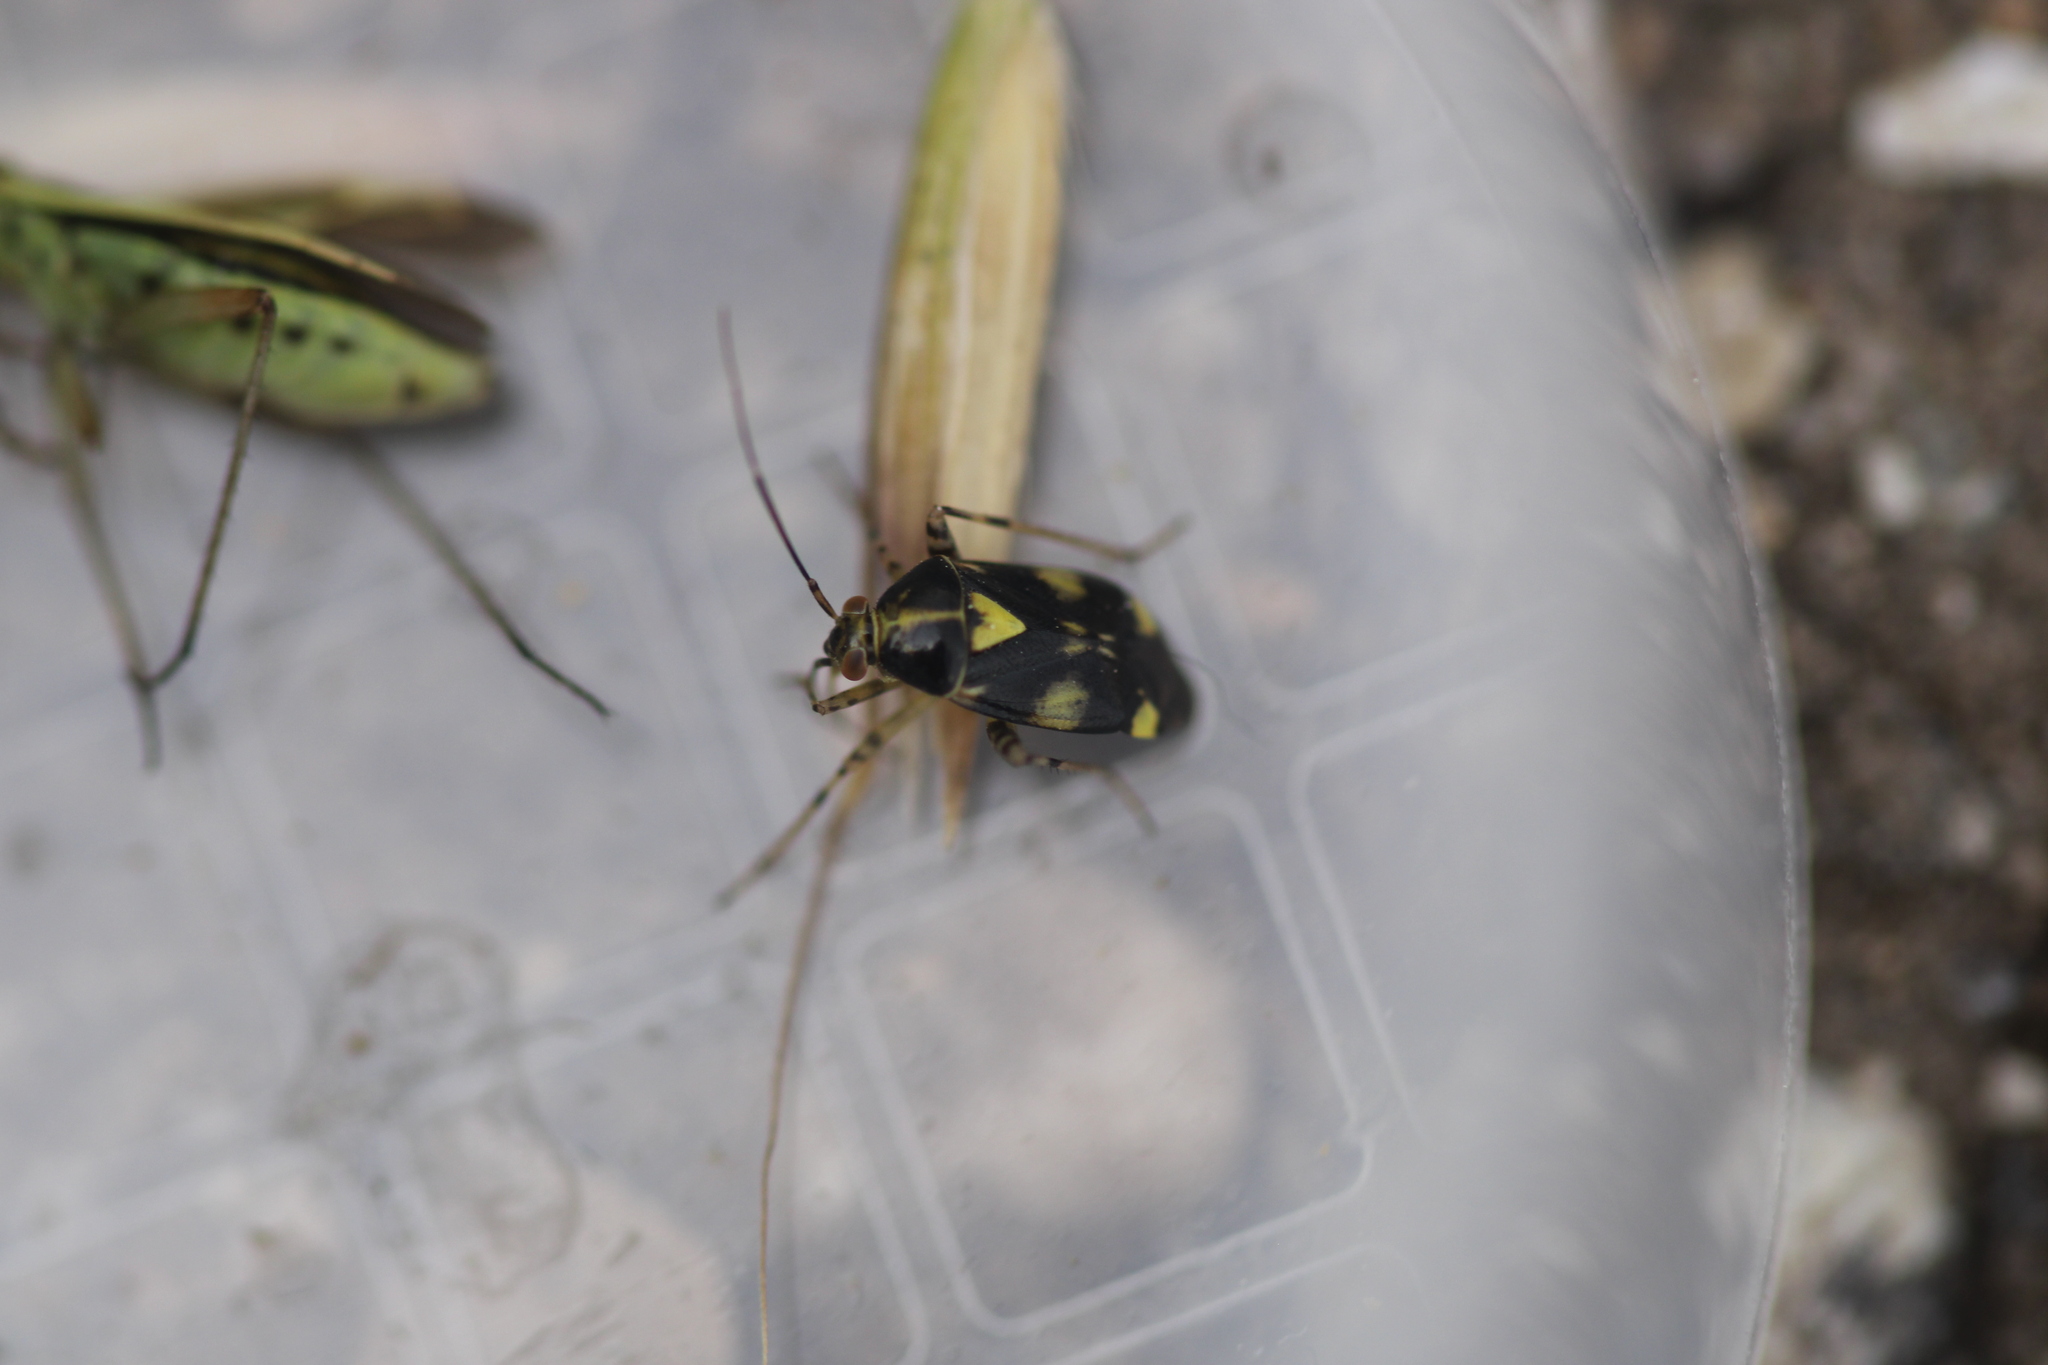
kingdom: Animalia
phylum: Arthropoda
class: Insecta
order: Hemiptera
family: Miridae
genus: Liocoris
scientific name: Liocoris tripustulatus
